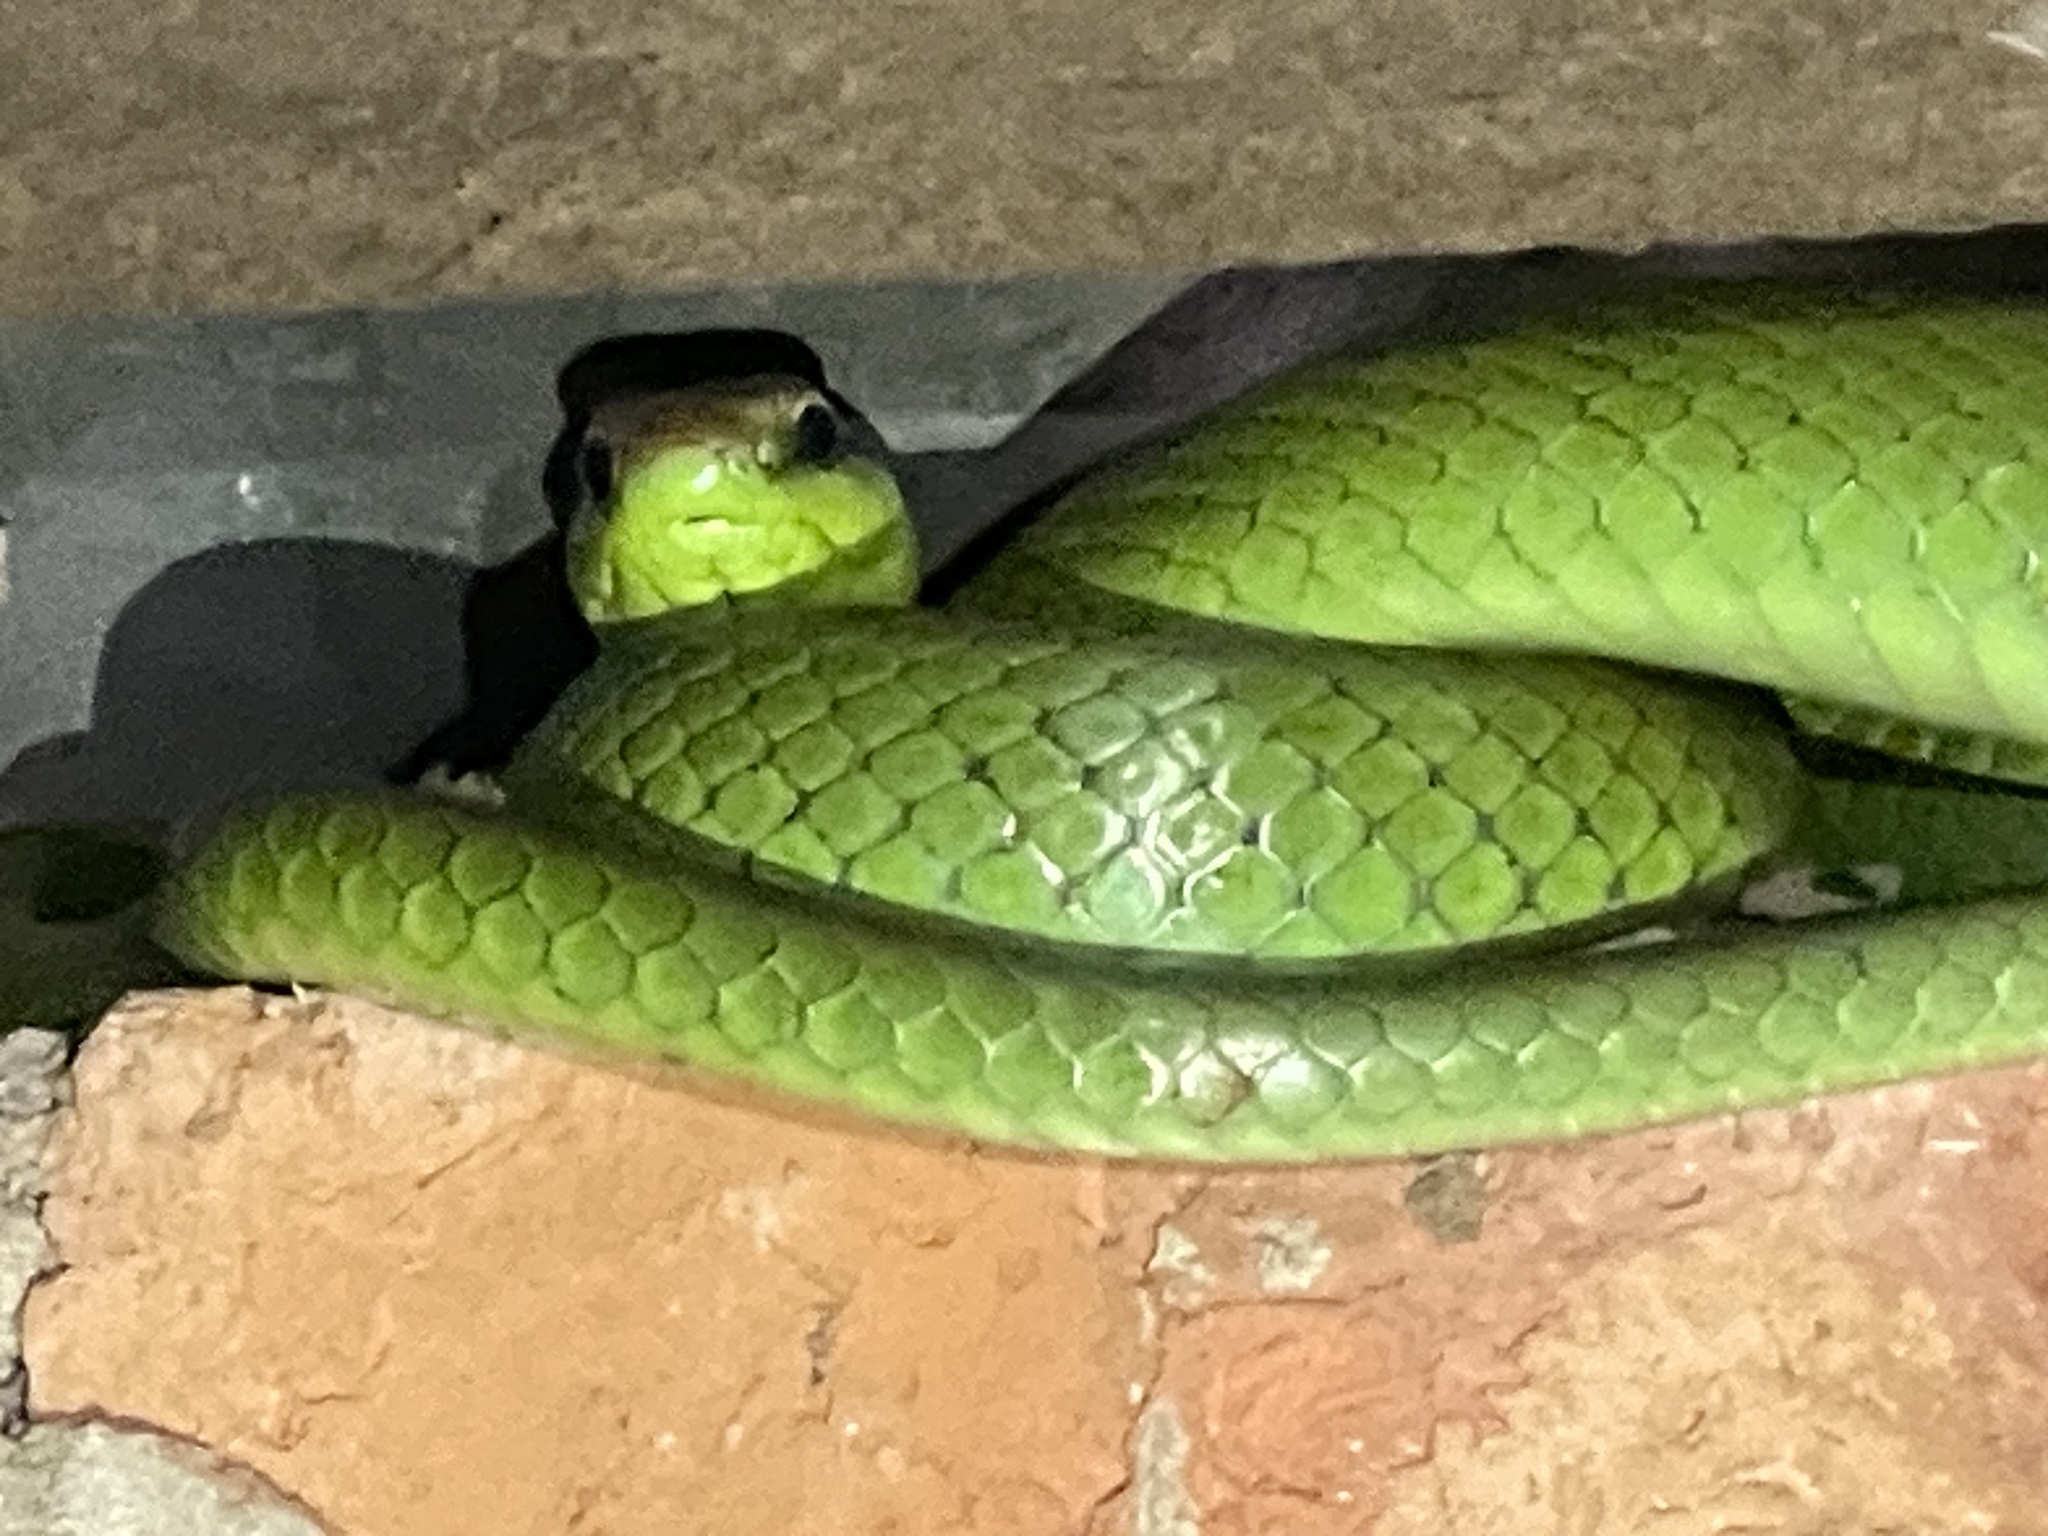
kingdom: Animalia
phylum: Chordata
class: Squamata
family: Colubridae
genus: Philodryas
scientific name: Philodryas olfersii
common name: Lichtenstein's green racer
